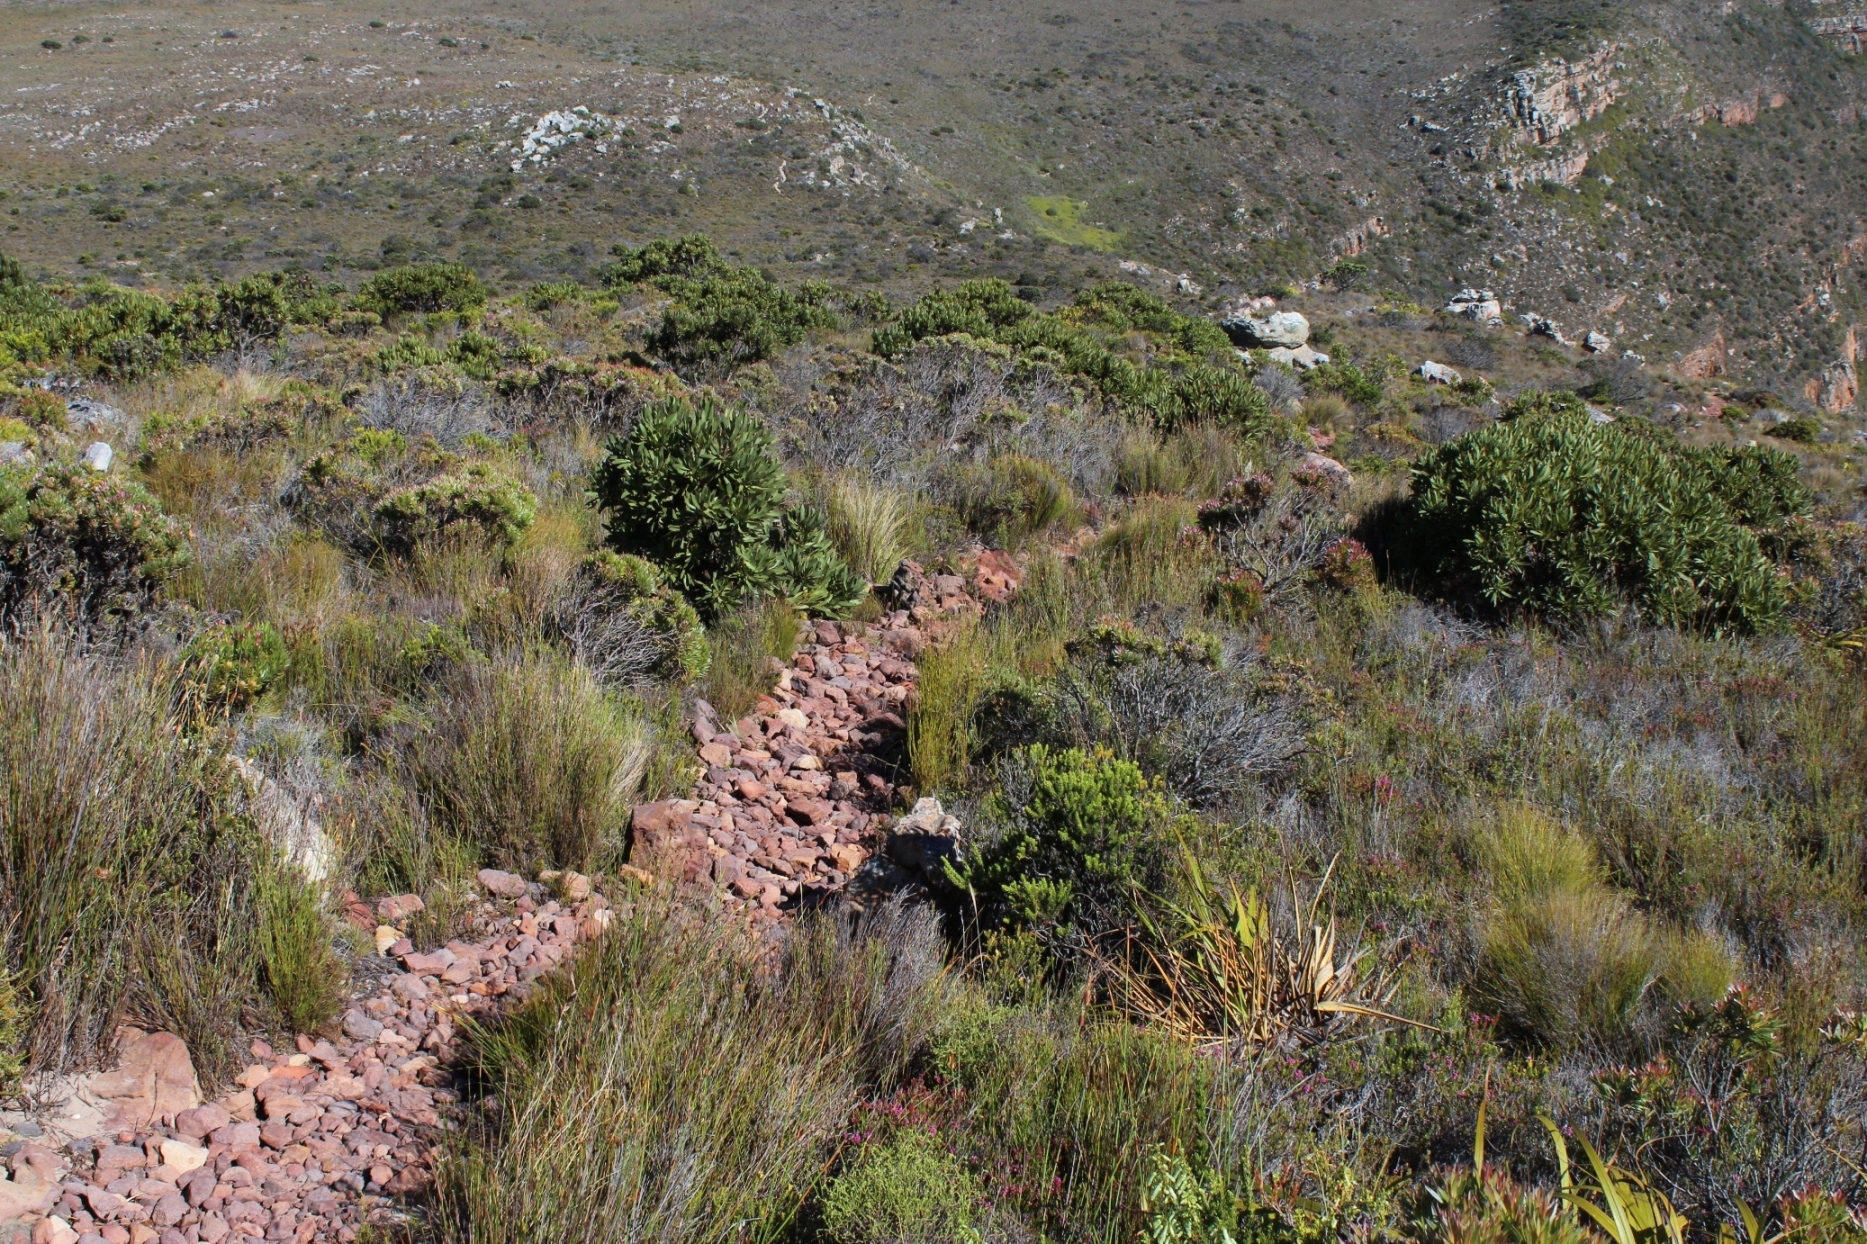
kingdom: Plantae
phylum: Tracheophyta
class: Magnoliopsida
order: Proteales
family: Proteaceae
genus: Protea
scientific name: Protea lepidocarpodendron
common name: Black-bearded protea
